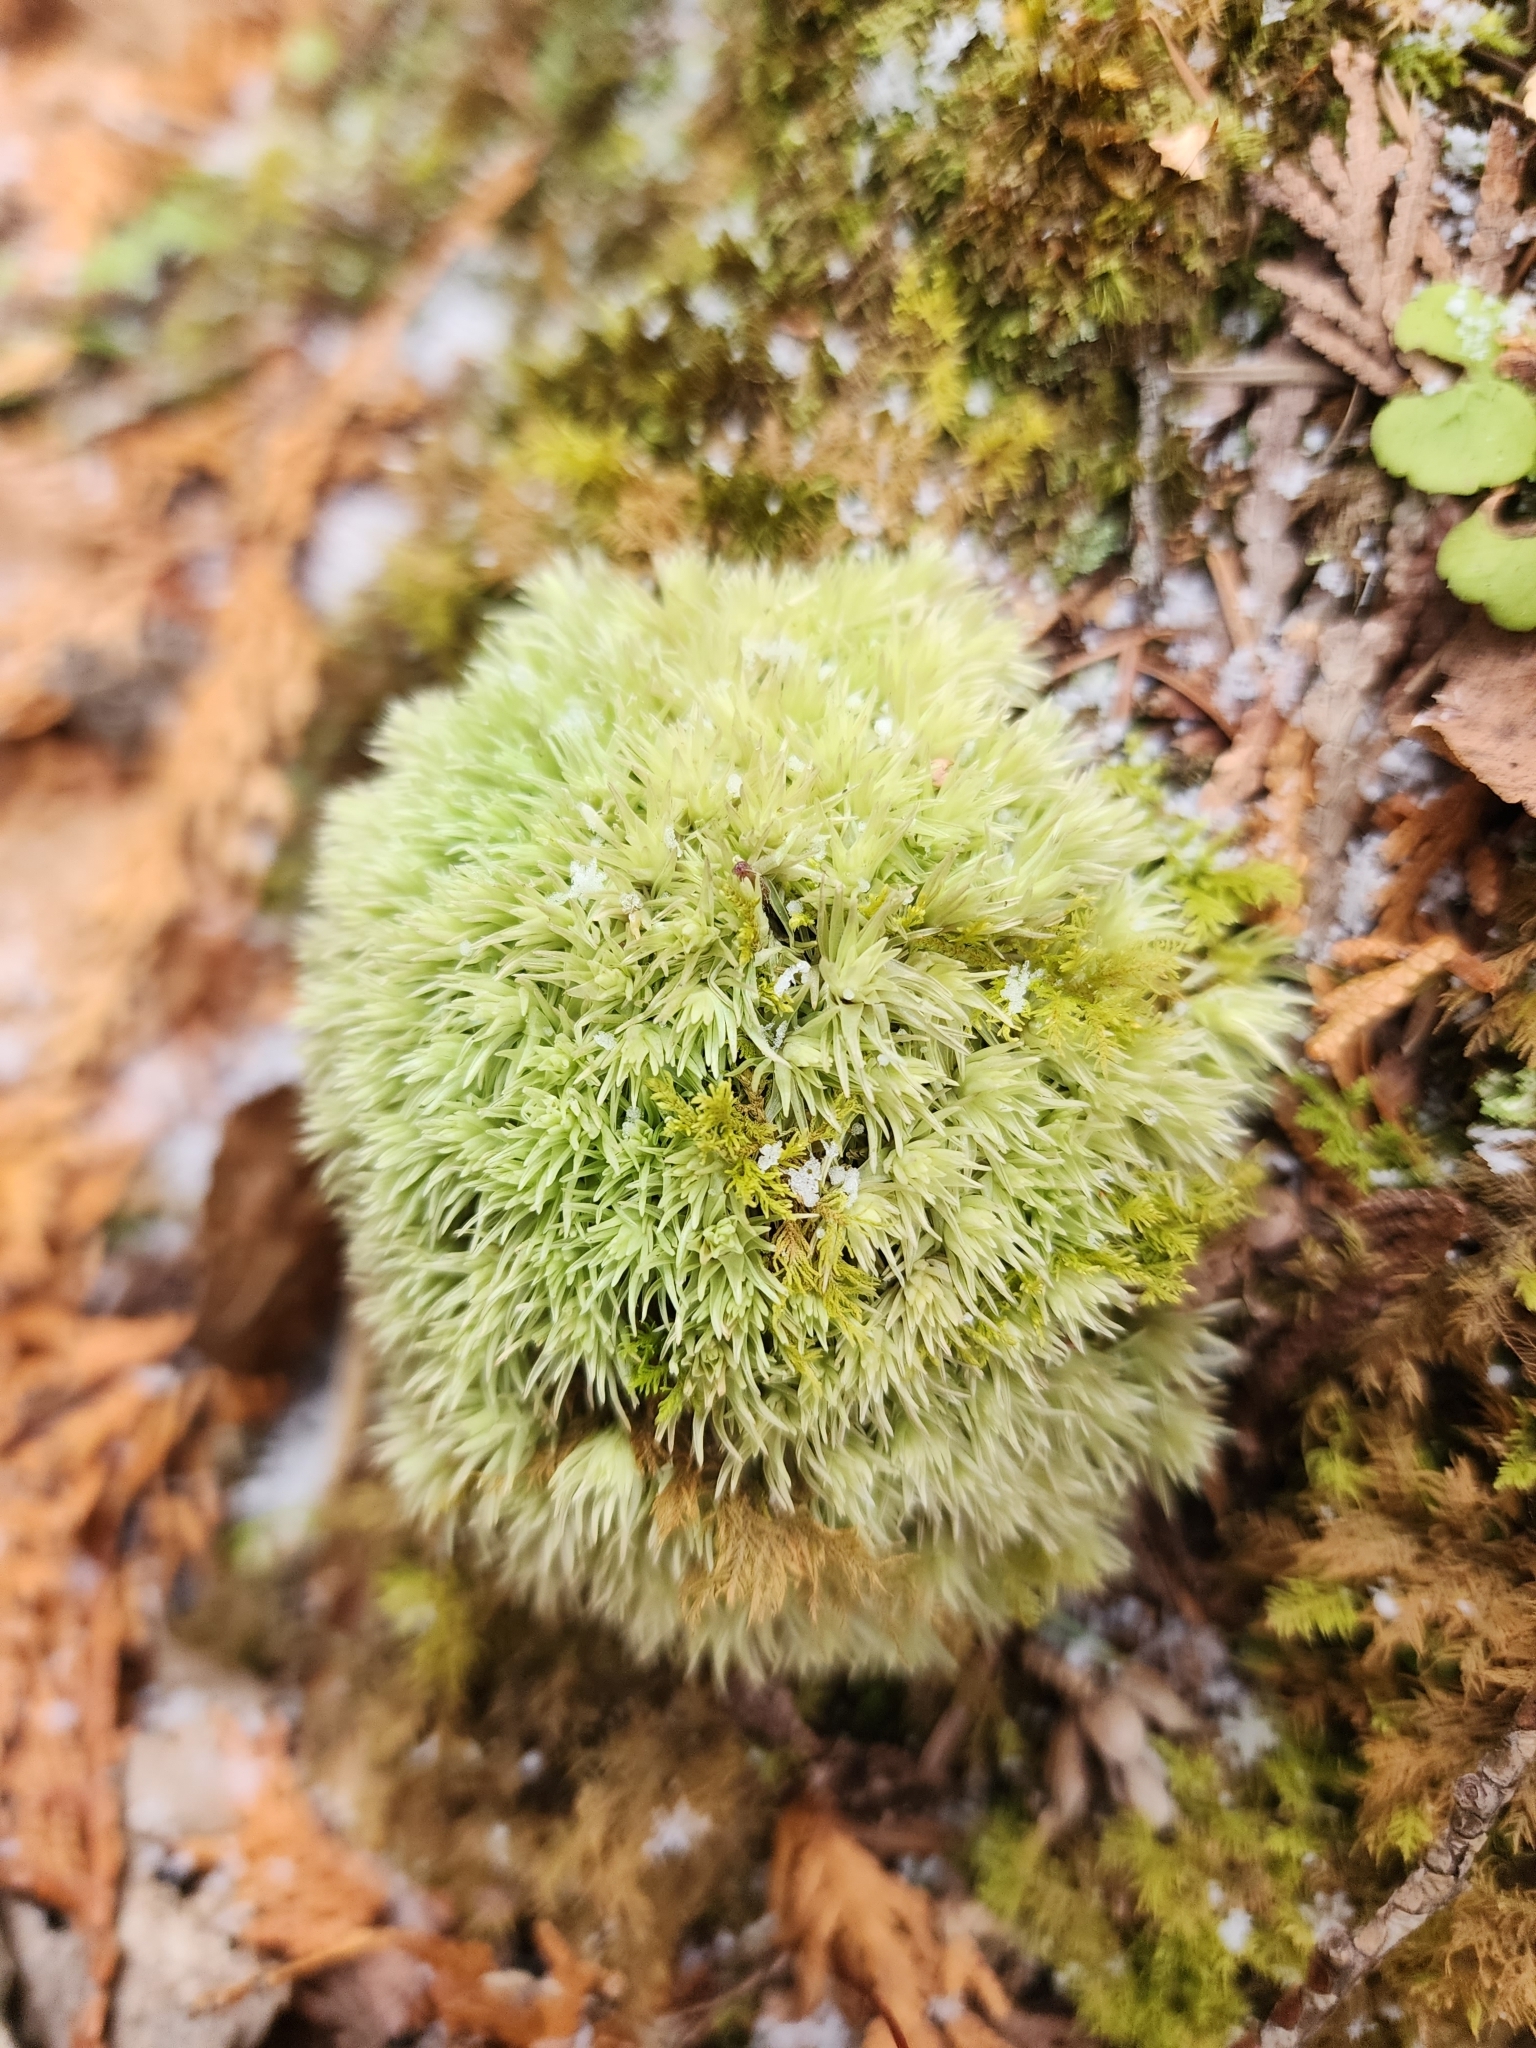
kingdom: Plantae
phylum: Bryophyta
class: Bryopsida
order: Dicranales
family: Leucobryaceae
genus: Leucobryum
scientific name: Leucobryum glaucum
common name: Large white-moss
